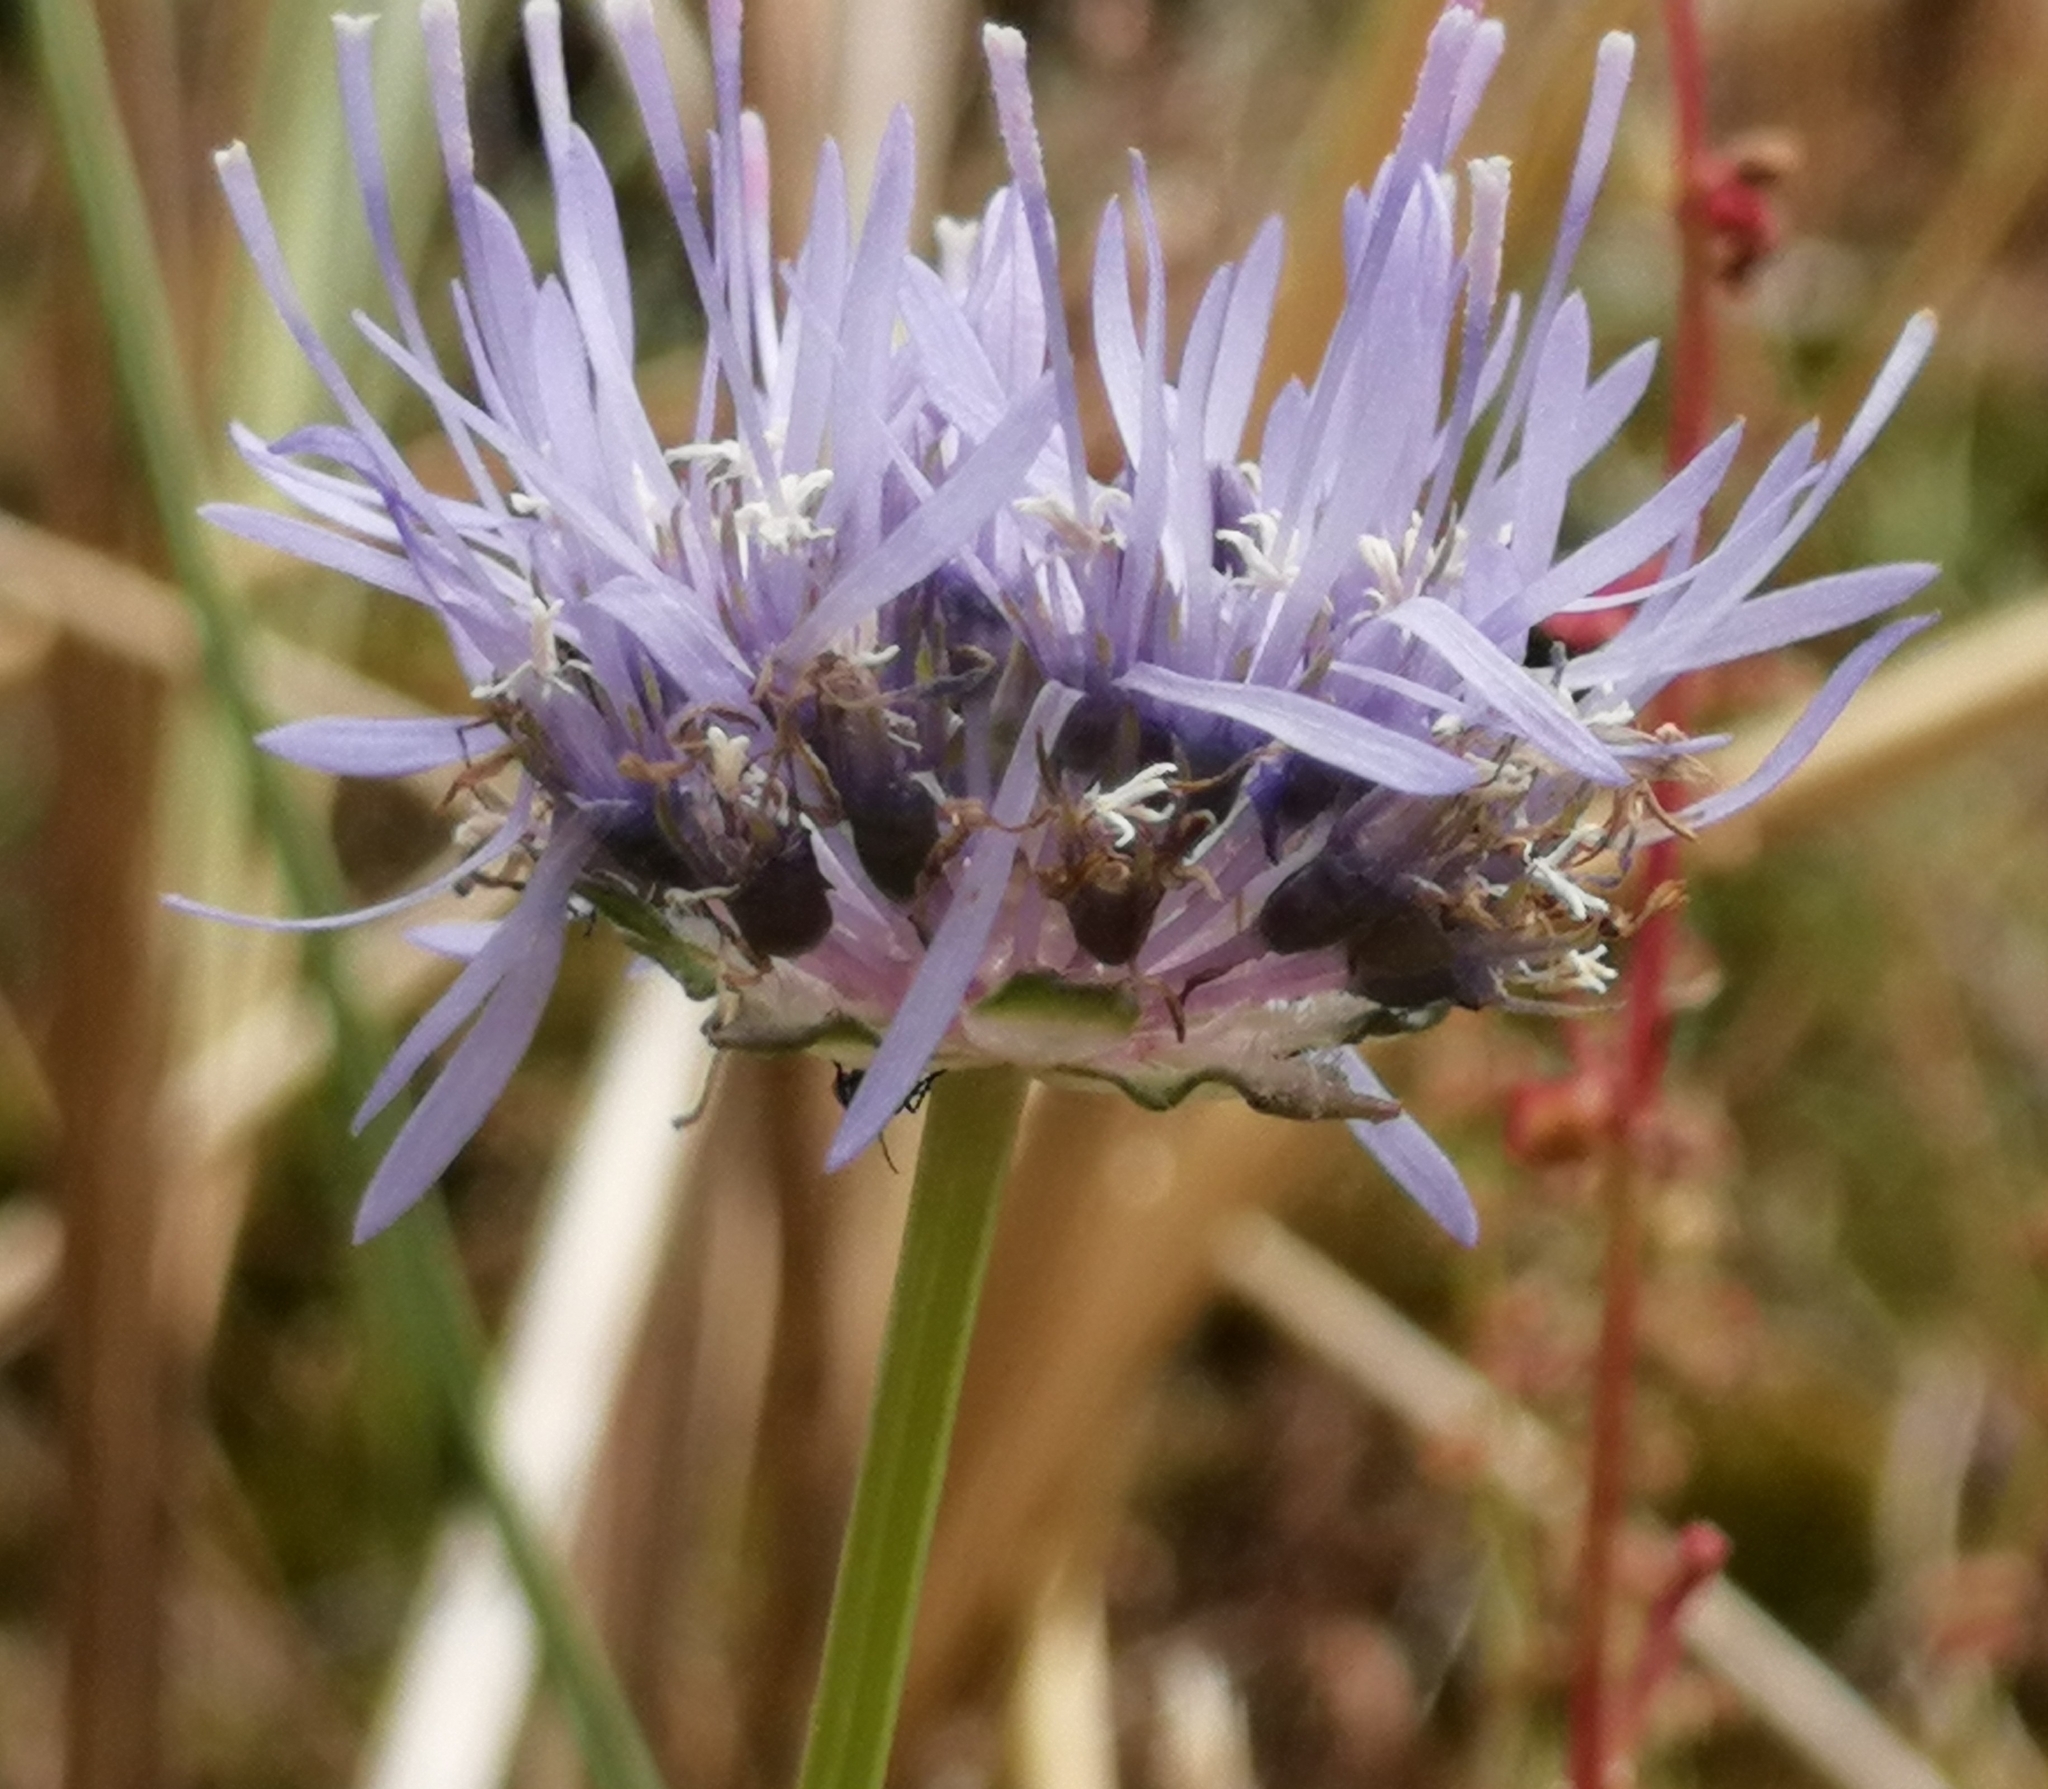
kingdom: Plantae
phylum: Tracheophyta
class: Magnoliopsida
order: Asterales
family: Campanulaceae
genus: Jasione
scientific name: Jasione montana
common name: Sheep's-bit
